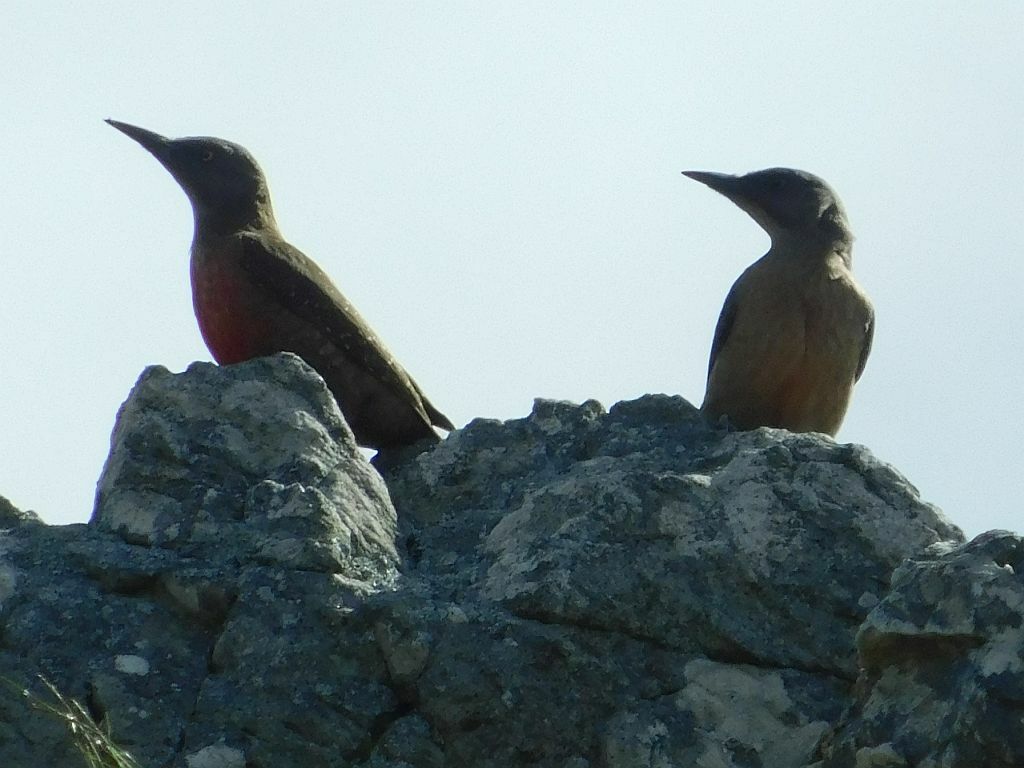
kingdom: Animalia
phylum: Chordata
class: Aves
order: Piciformes
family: Picidae
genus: Geocolaptes
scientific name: Geocolaptes olivaceus
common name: Ground woodpecker
